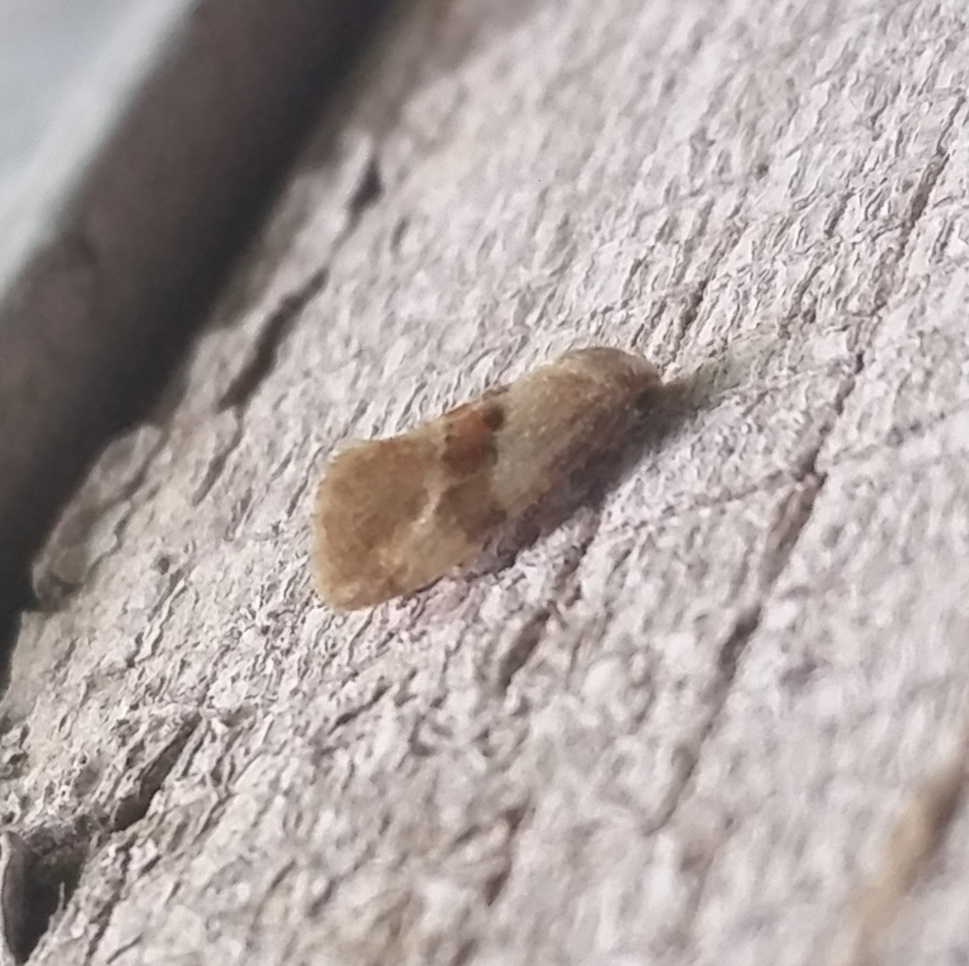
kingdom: Animalia
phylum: Arthropoda
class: Insecta
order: Lepidoptera
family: Tortricidae
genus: Phalonidia
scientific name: Phalonidia lepidana
